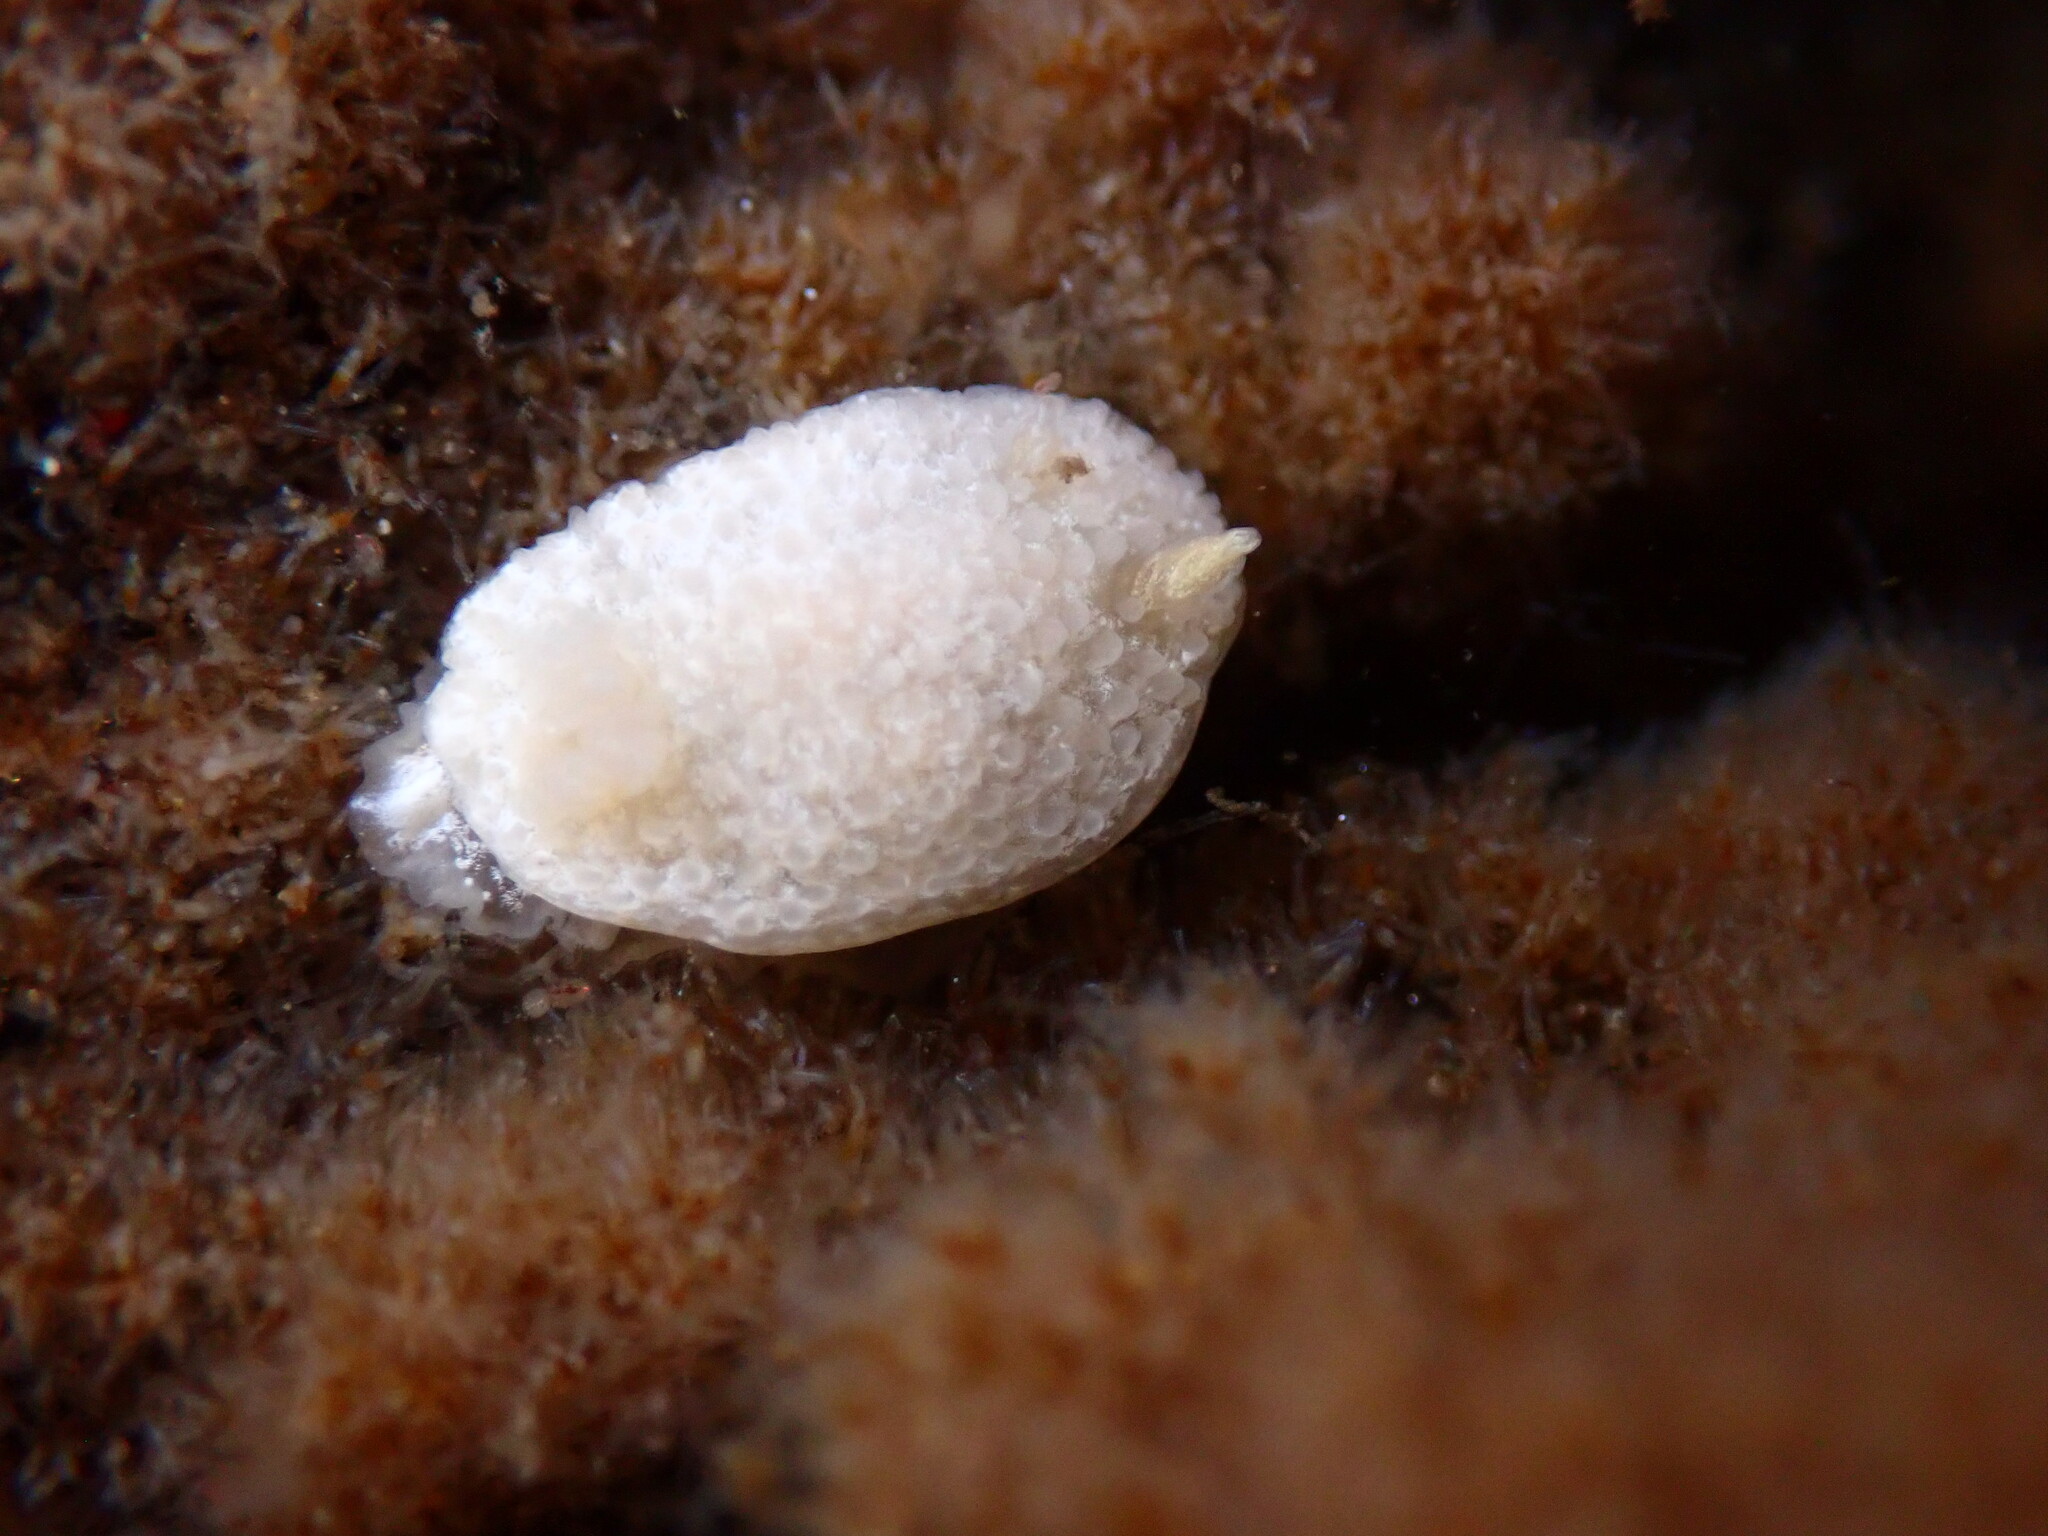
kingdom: Animalia
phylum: Mollusca
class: Gastropoda
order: Nudibranchia
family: Calycidorididae
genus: Diaphorodoris
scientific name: Diaphorodoris lirulatocauda
